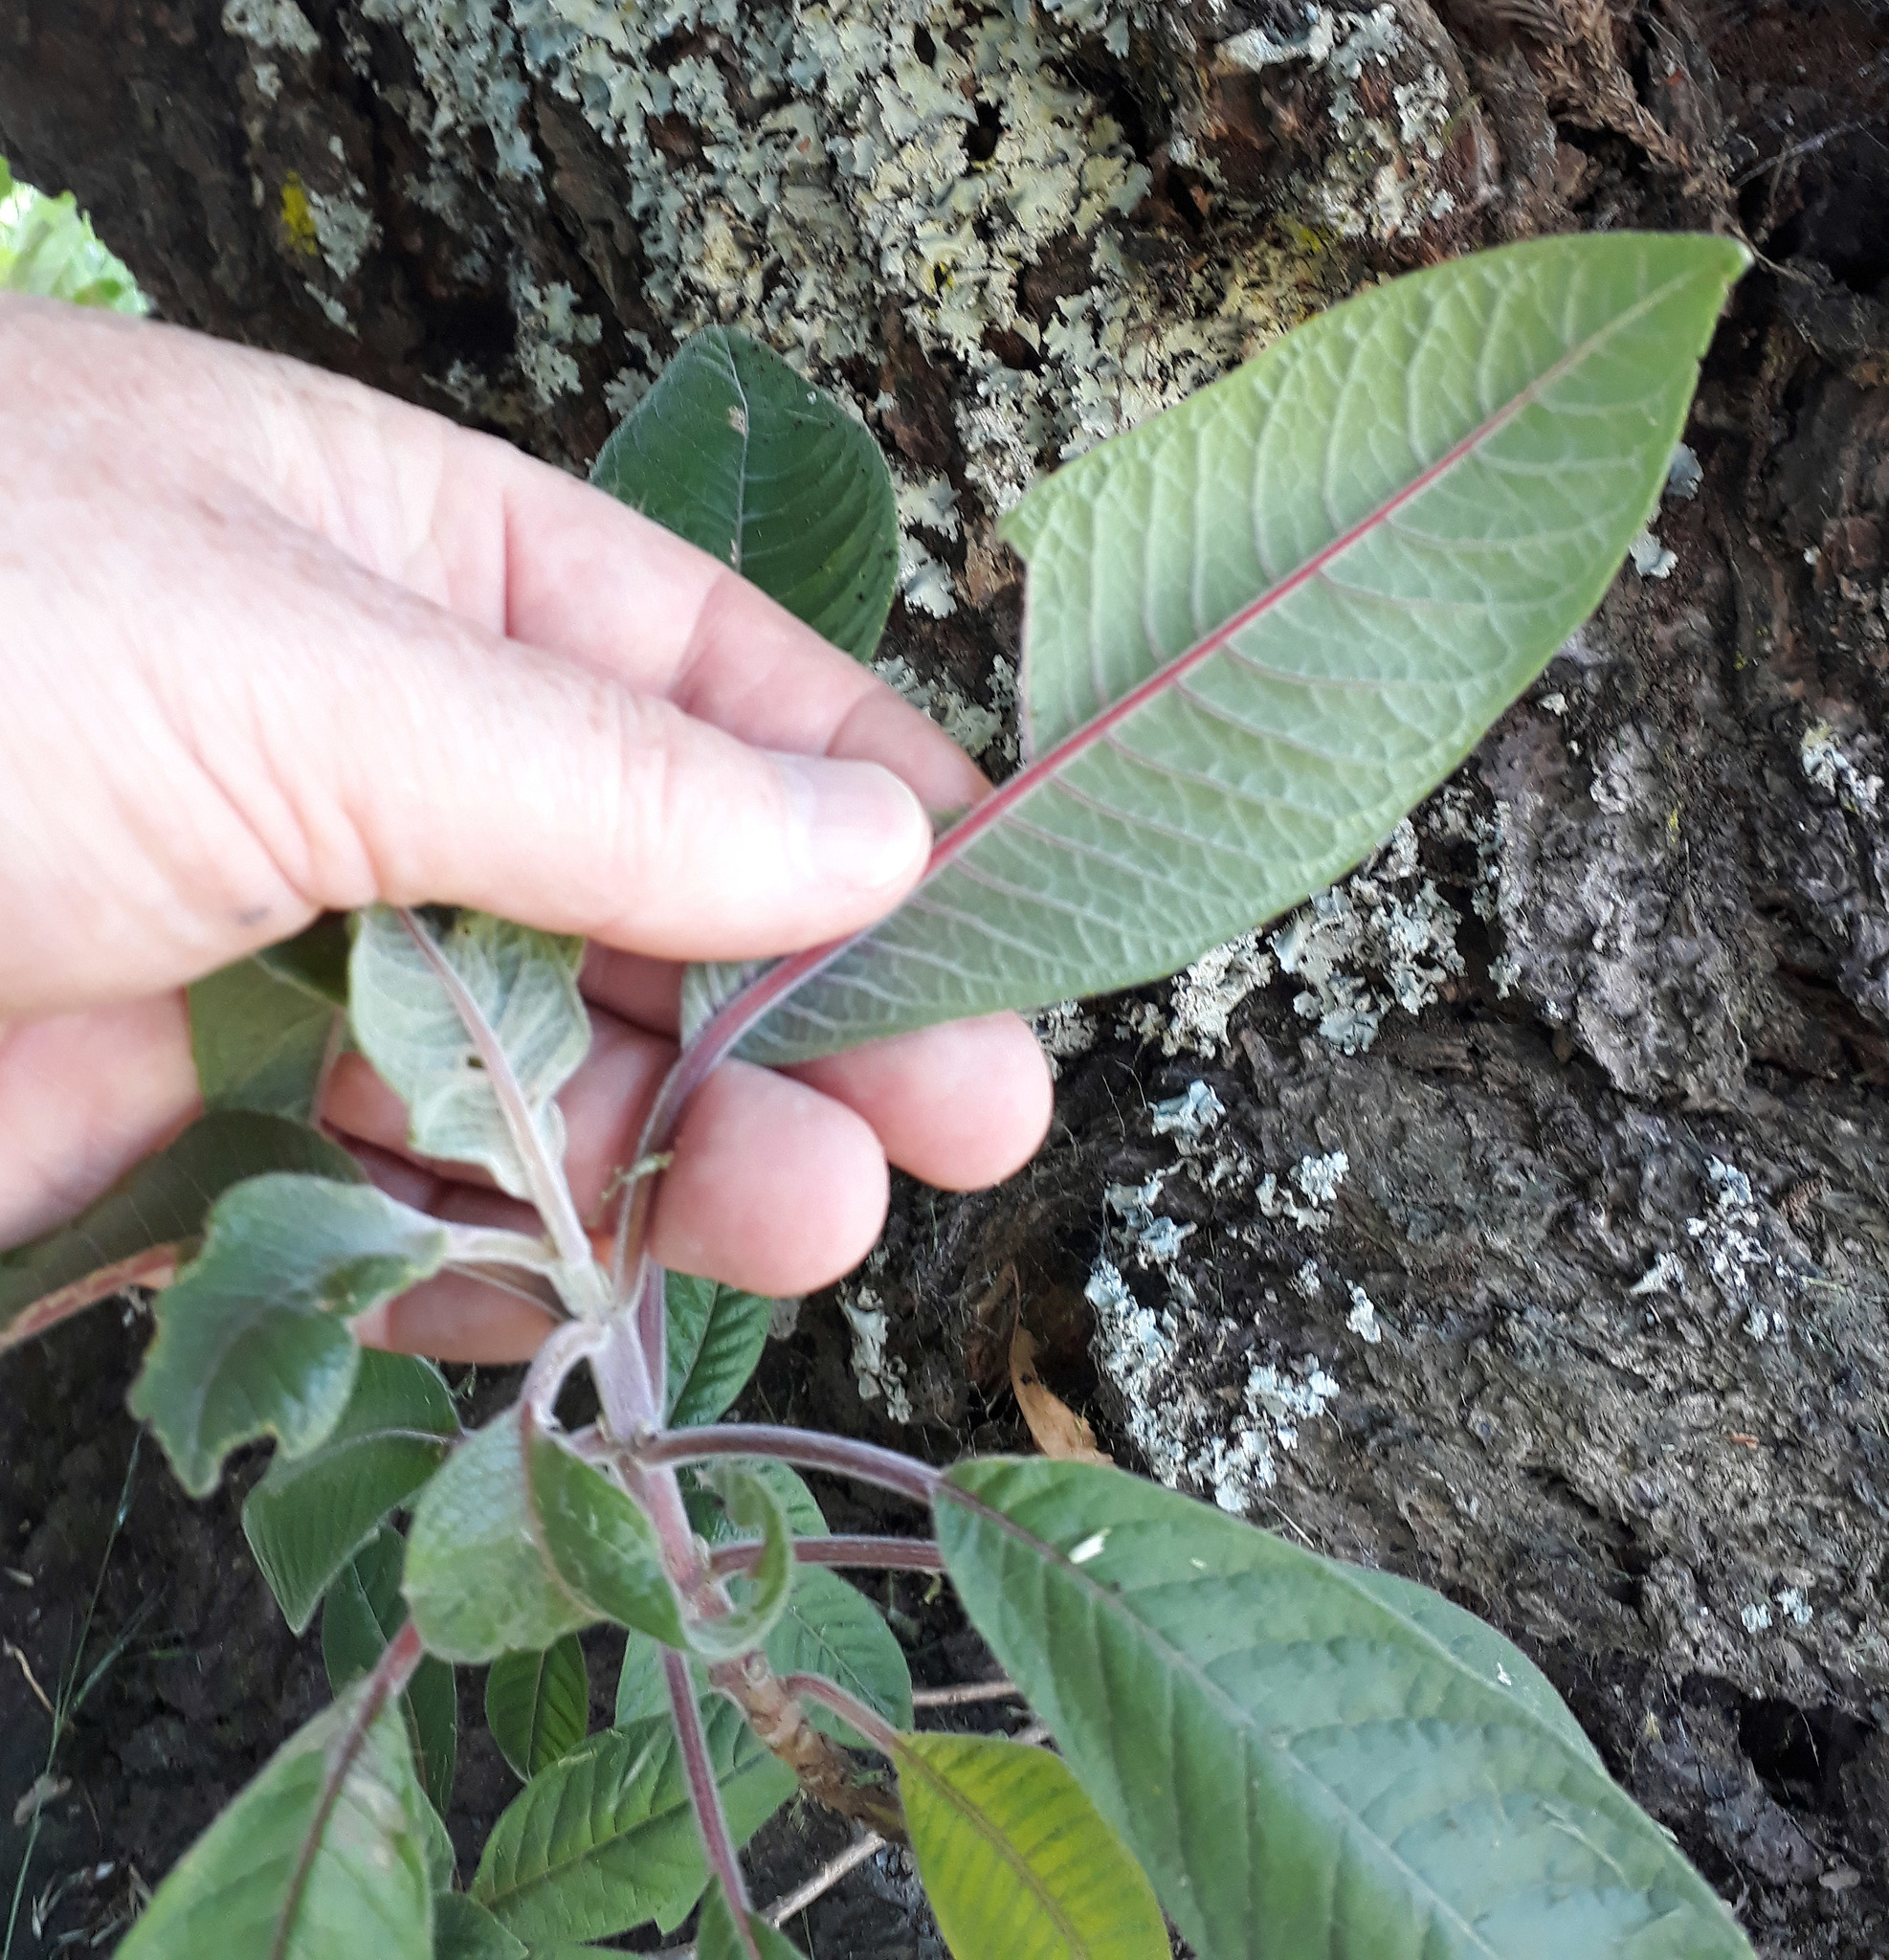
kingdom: Plantae
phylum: Tracheophyta
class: Magnoliopsida
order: Myrtales
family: Onagraceae
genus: Fuchsia
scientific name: Fuchsia boliviana
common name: Bolivian fuchsia
